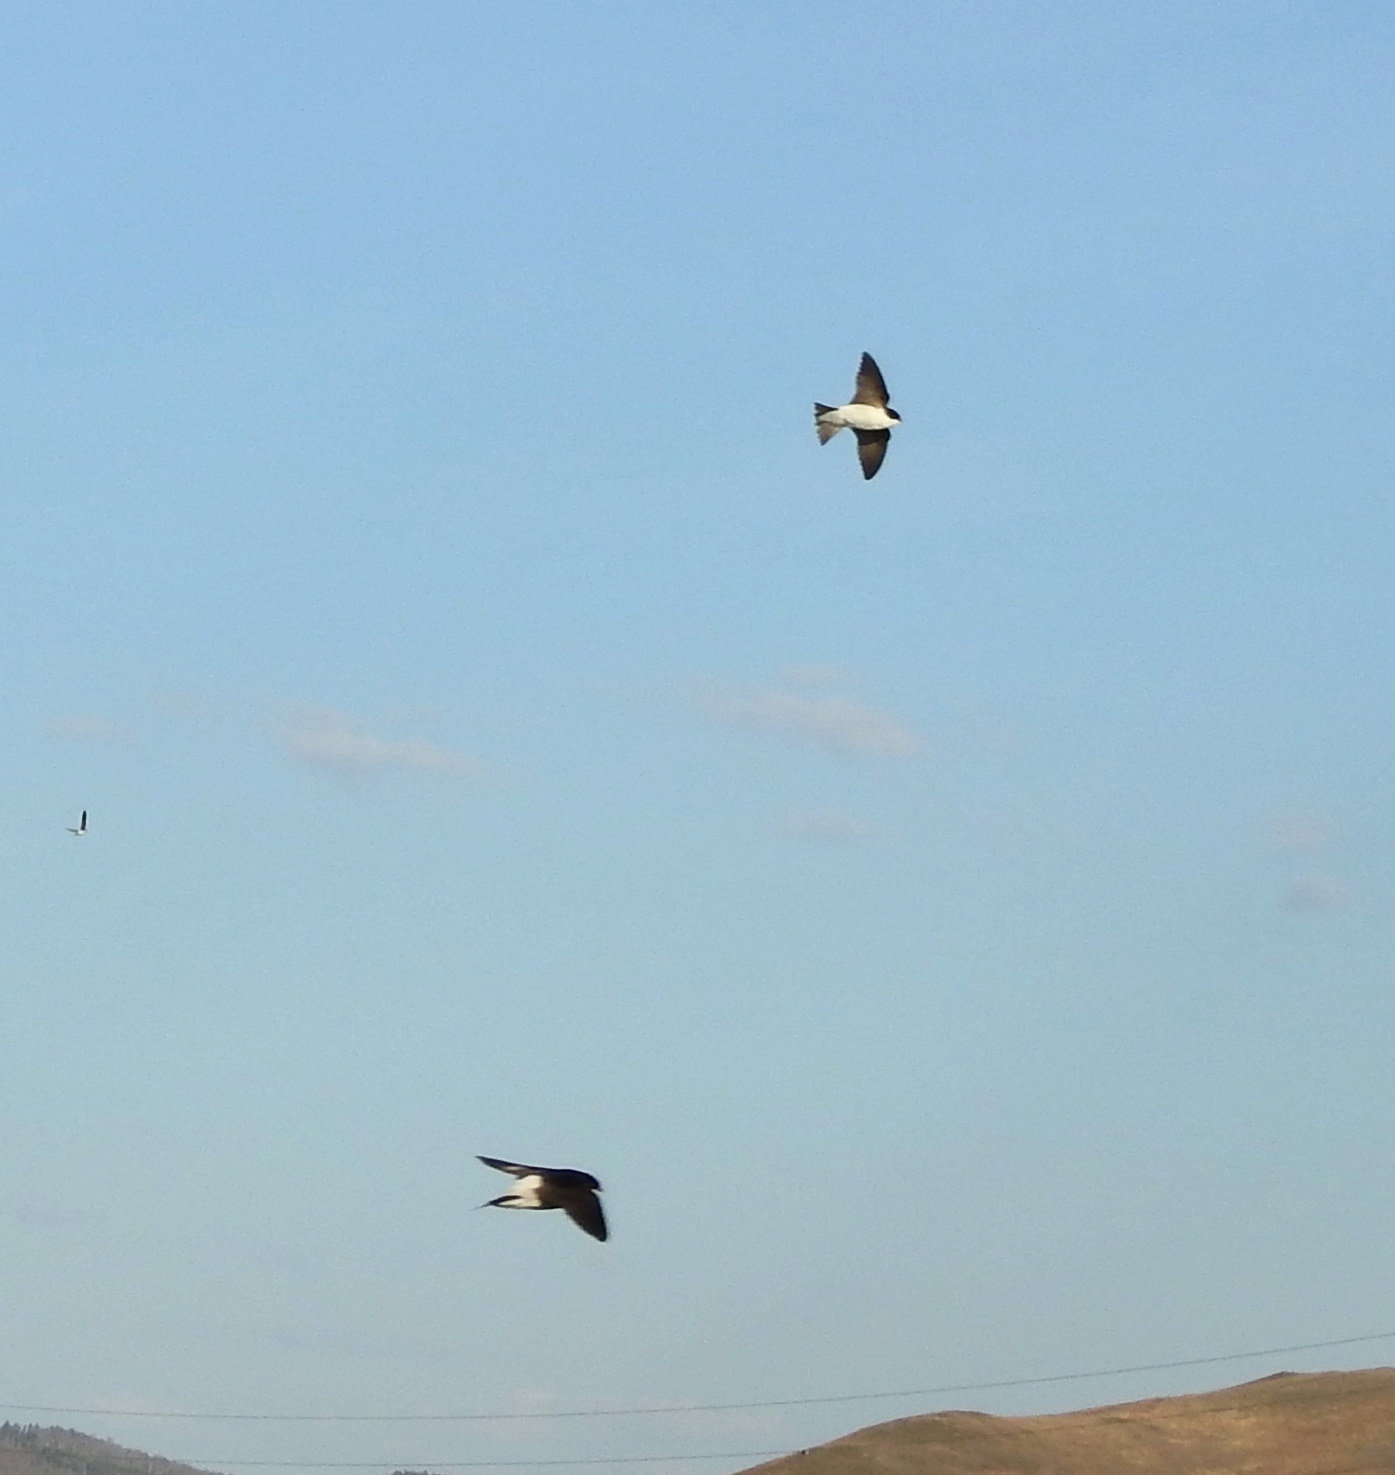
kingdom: Animalia
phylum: Chordata
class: Aves
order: Passeriformes
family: Hirundinidae
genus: Delichon
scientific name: Delichon urbicum
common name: Common house martin
